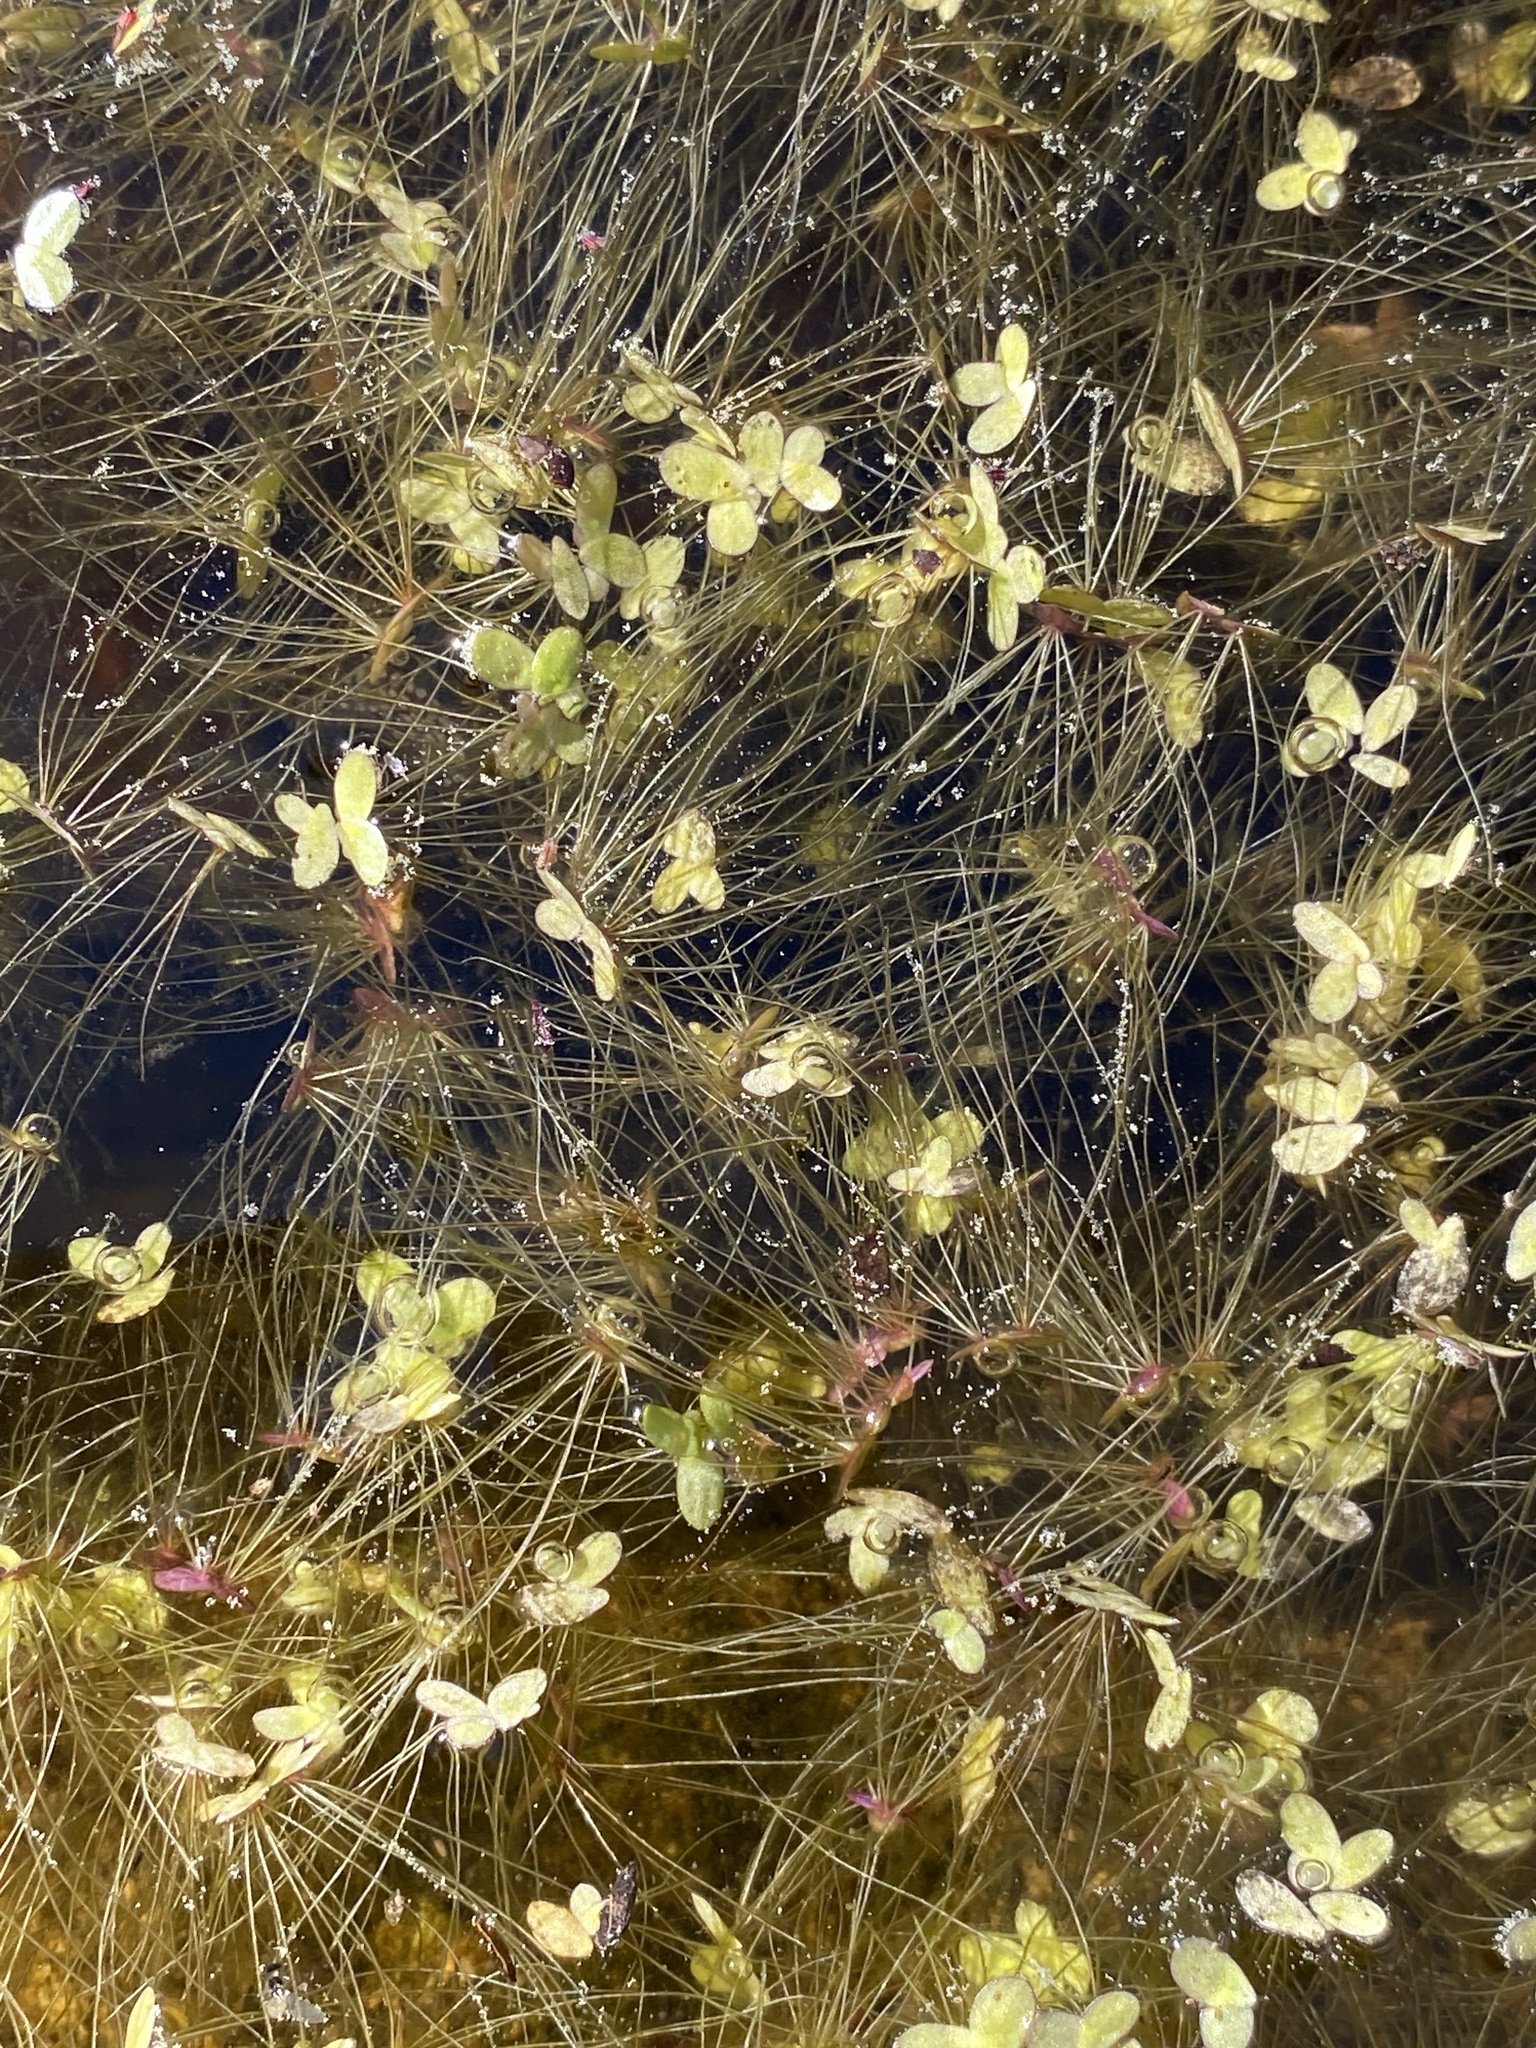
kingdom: Plantae
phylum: Tracheophyta
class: Liliopsida
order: Alismatales
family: Araceae
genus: Spirodela
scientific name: Spirodela punctata
